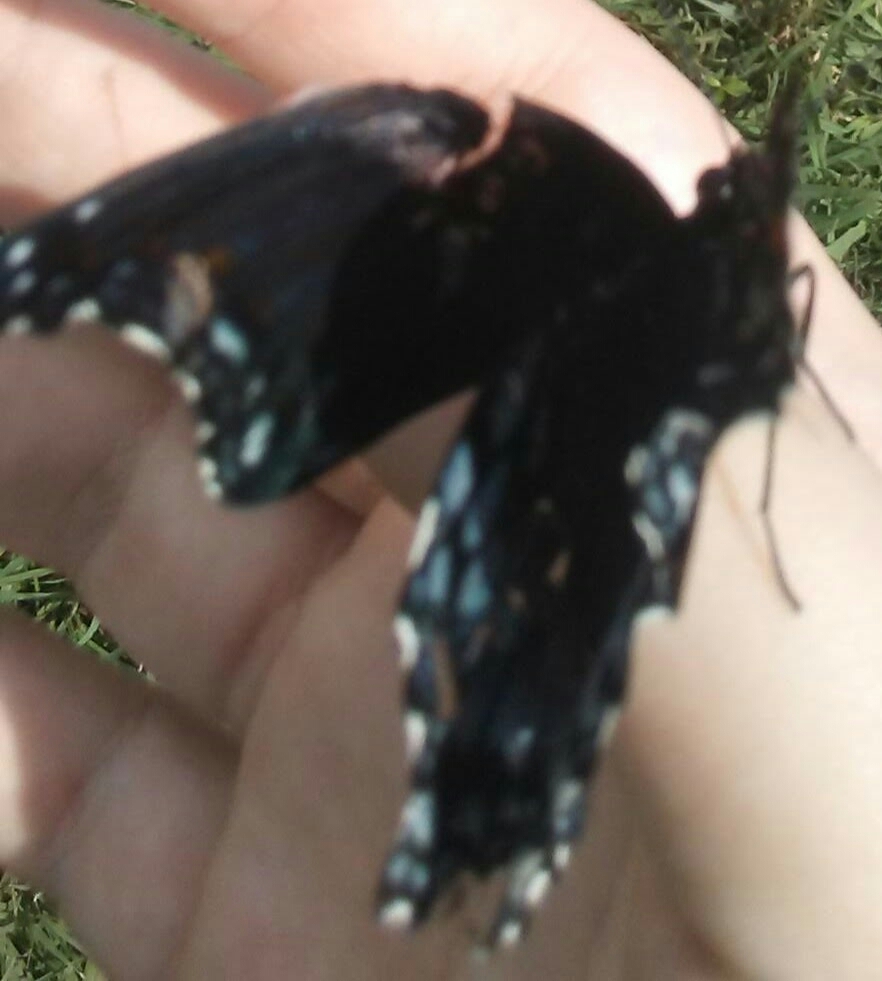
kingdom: Animalia
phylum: Arthropoda
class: Insecta
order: Lepidoptera
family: Nymphalidae
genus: Limenitis
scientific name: Limenitis arthemis
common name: Red-spotted admiral
